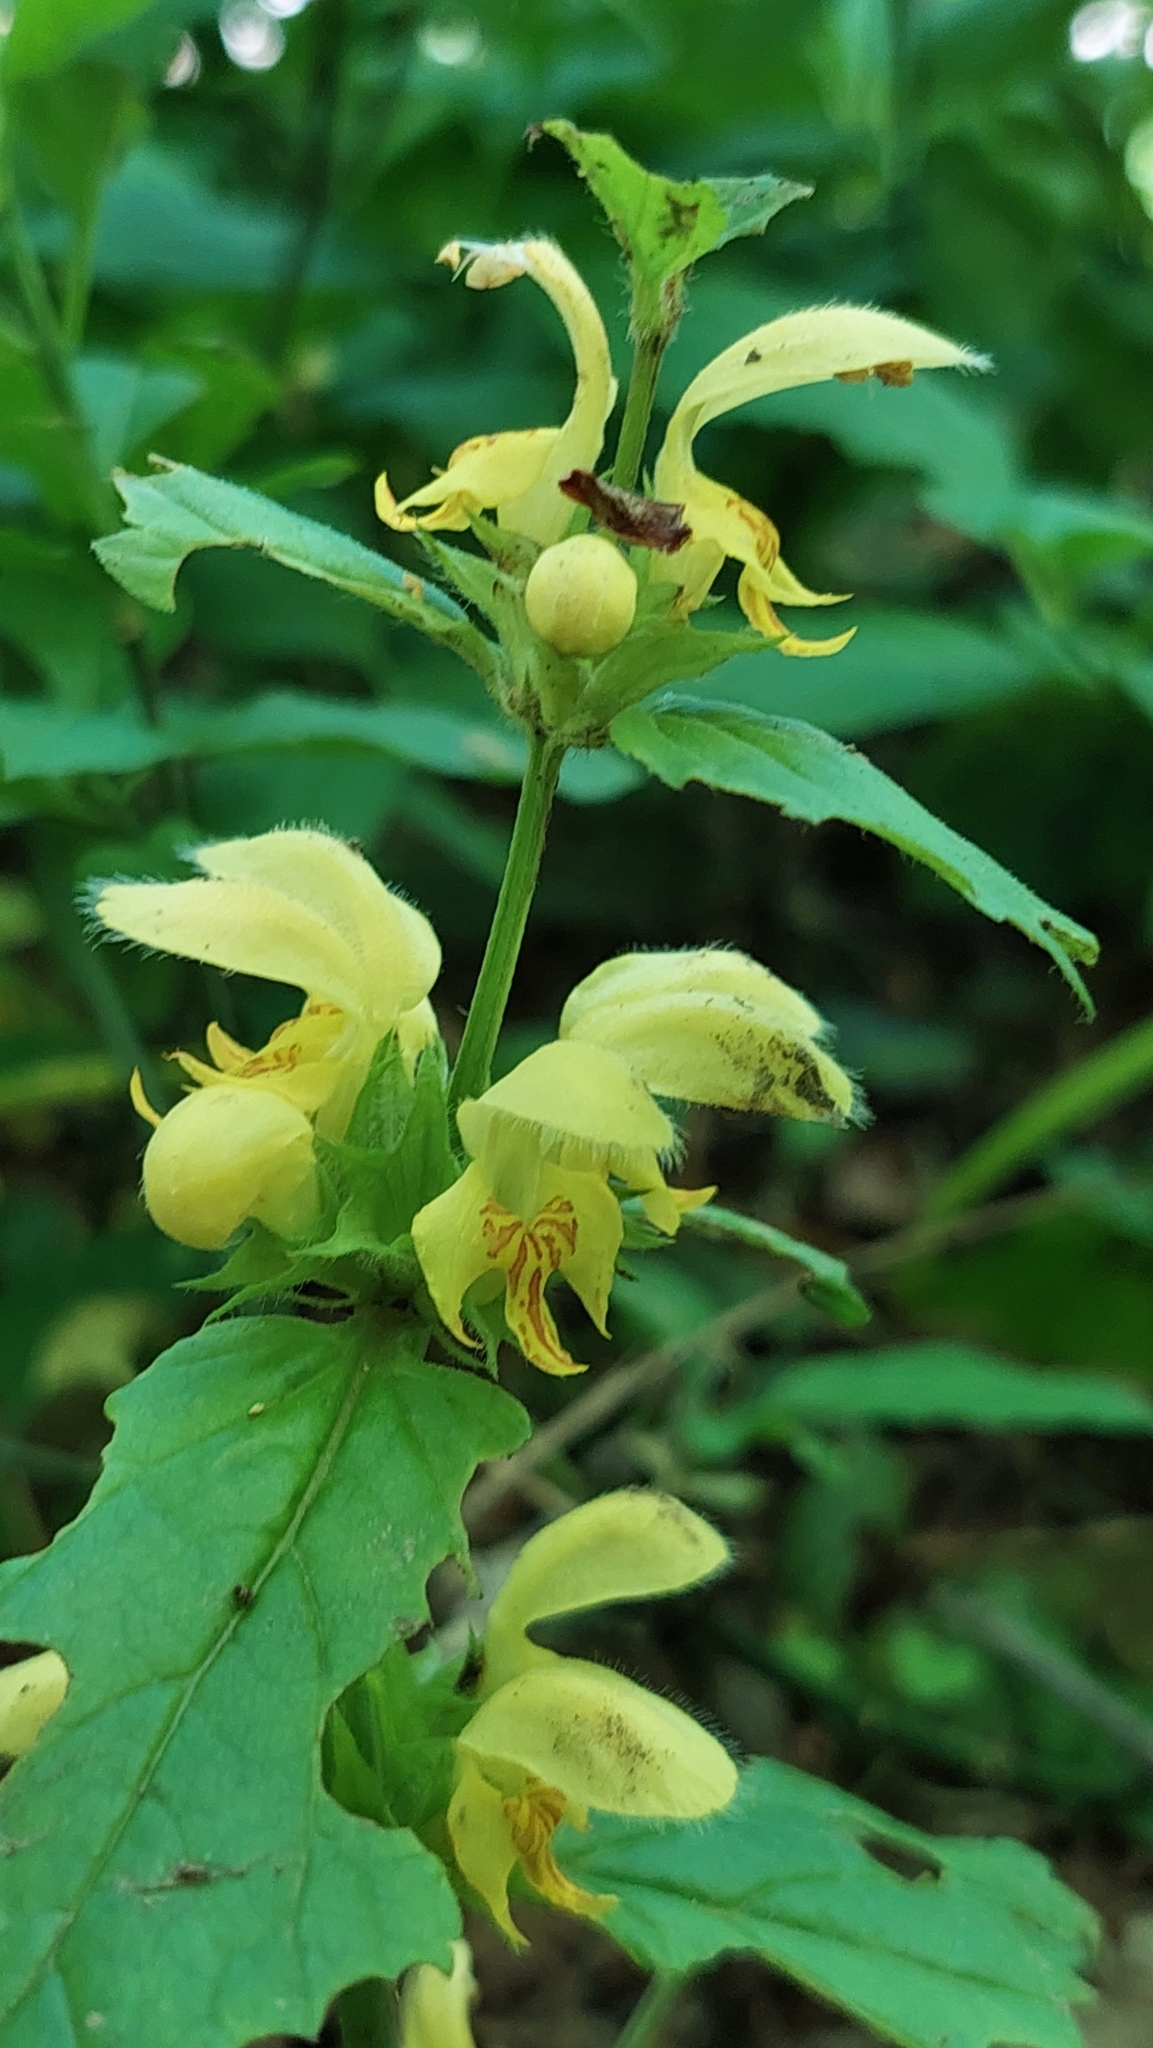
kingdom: Plantae
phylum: Tracheophyta
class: Magnoliopsida
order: Lamiales
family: Lamiaceae
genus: Lamium
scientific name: Lamium galeobdolon
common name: Yellow archangel
